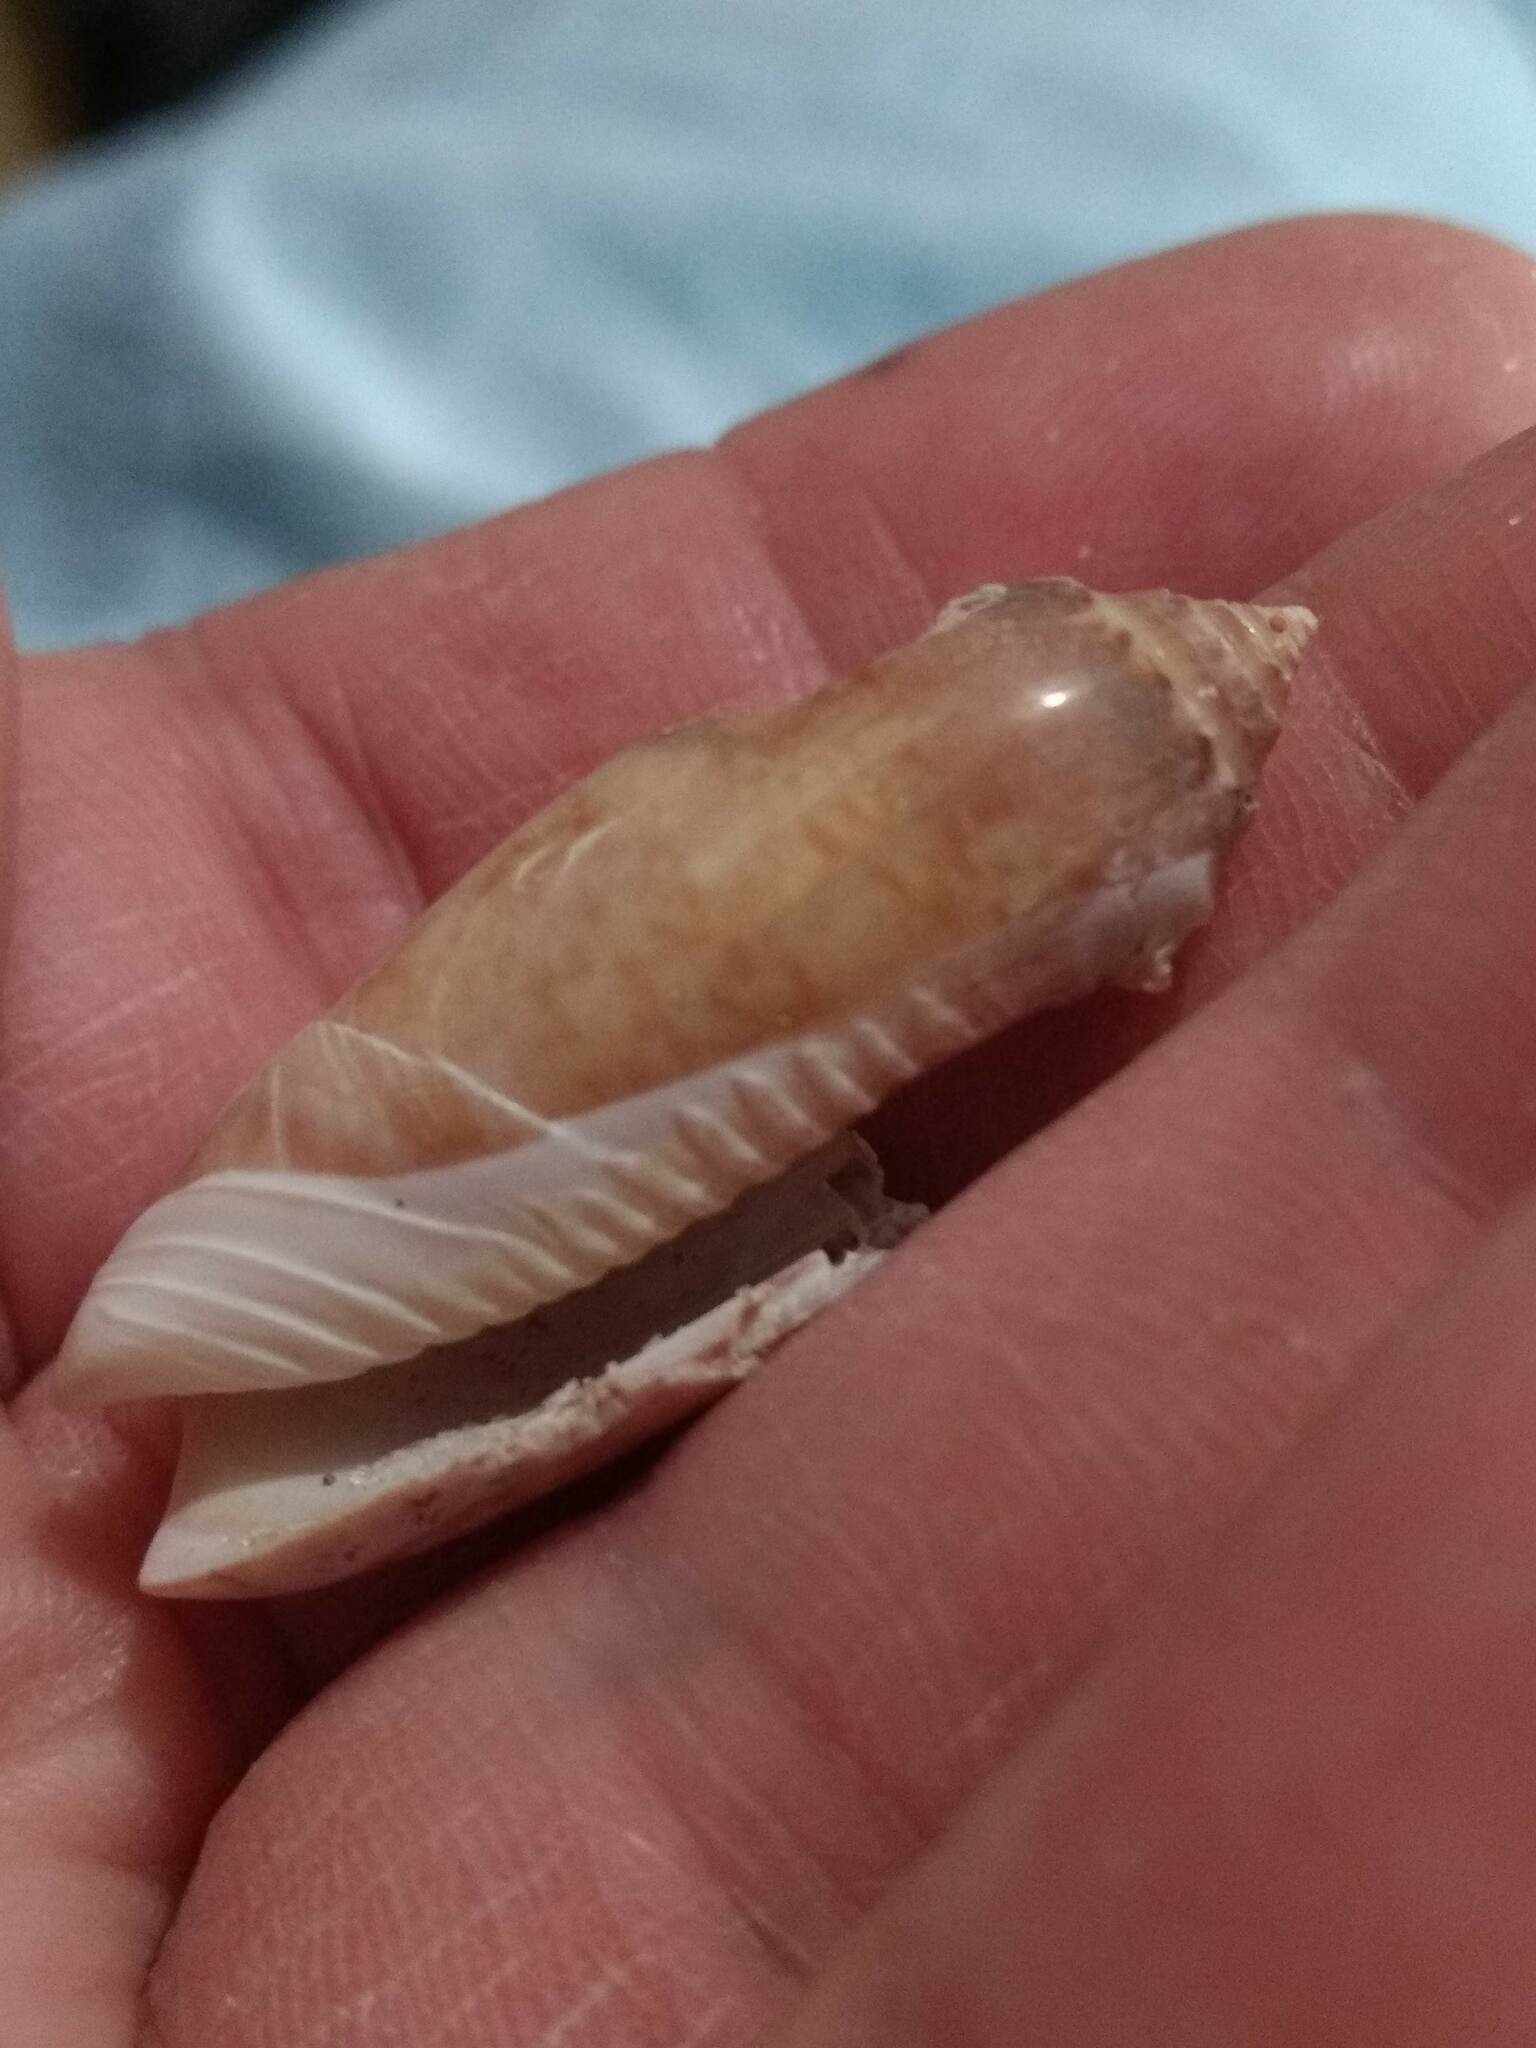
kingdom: Animalia
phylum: Mollusca
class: Gastropoda
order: Neogastropoda
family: Olividae
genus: Oliva
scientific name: Oliva sayana
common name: Lettered olive
